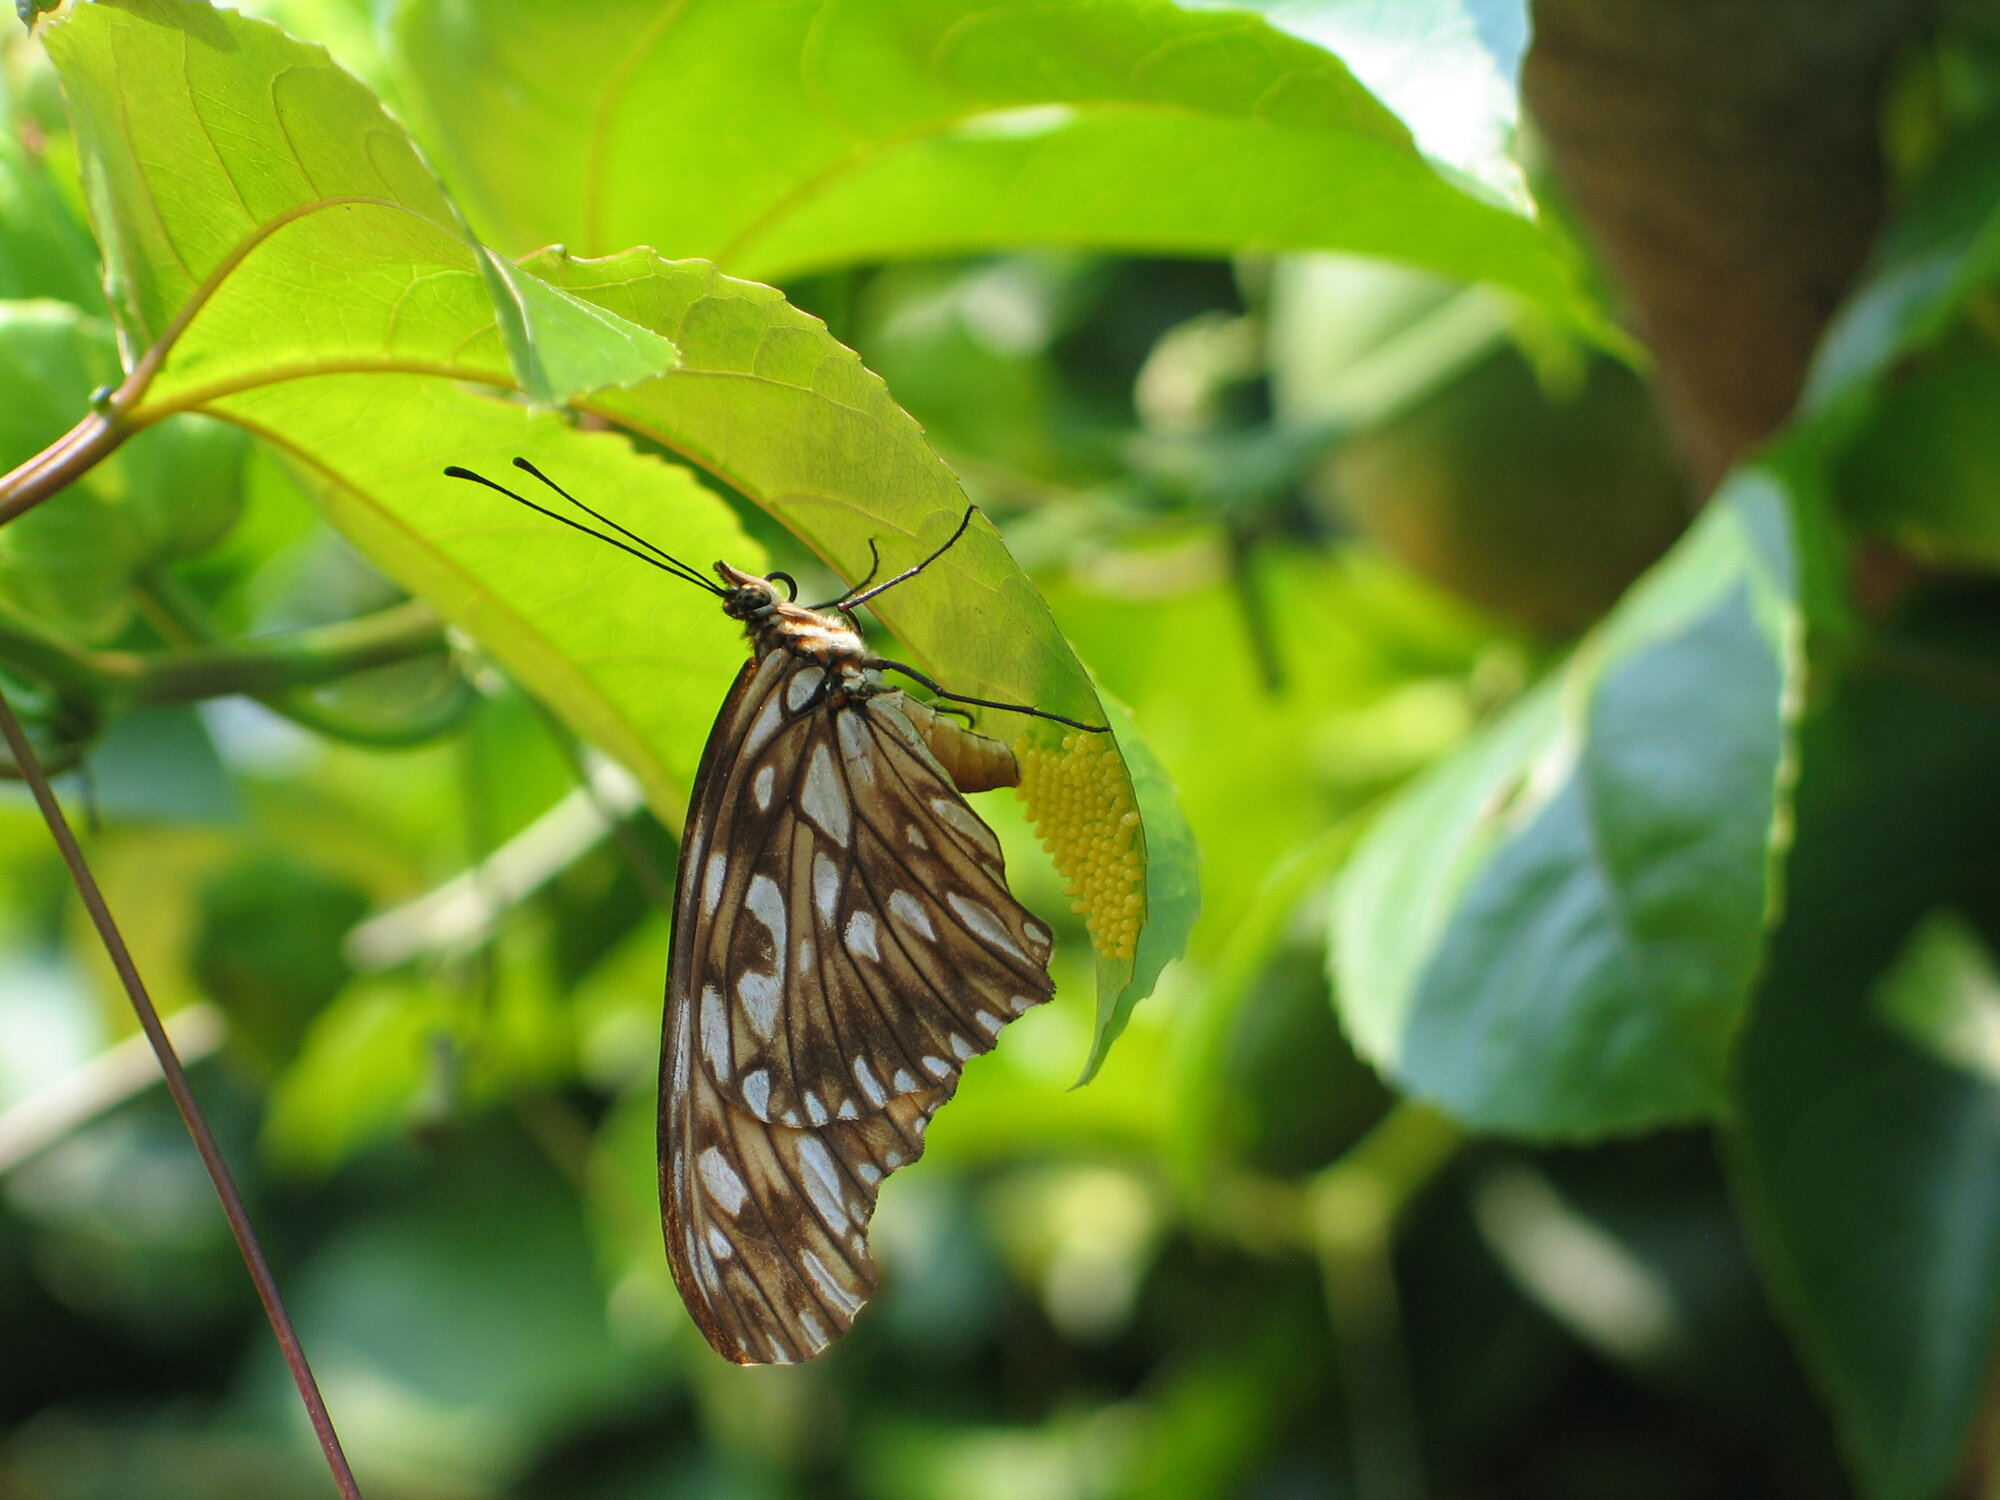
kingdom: Animalia
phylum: Arthropoda
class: Insecta
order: Lepidoptera
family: Nymphalidae
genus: Dione
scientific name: Dione juno
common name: Juno silverspot
